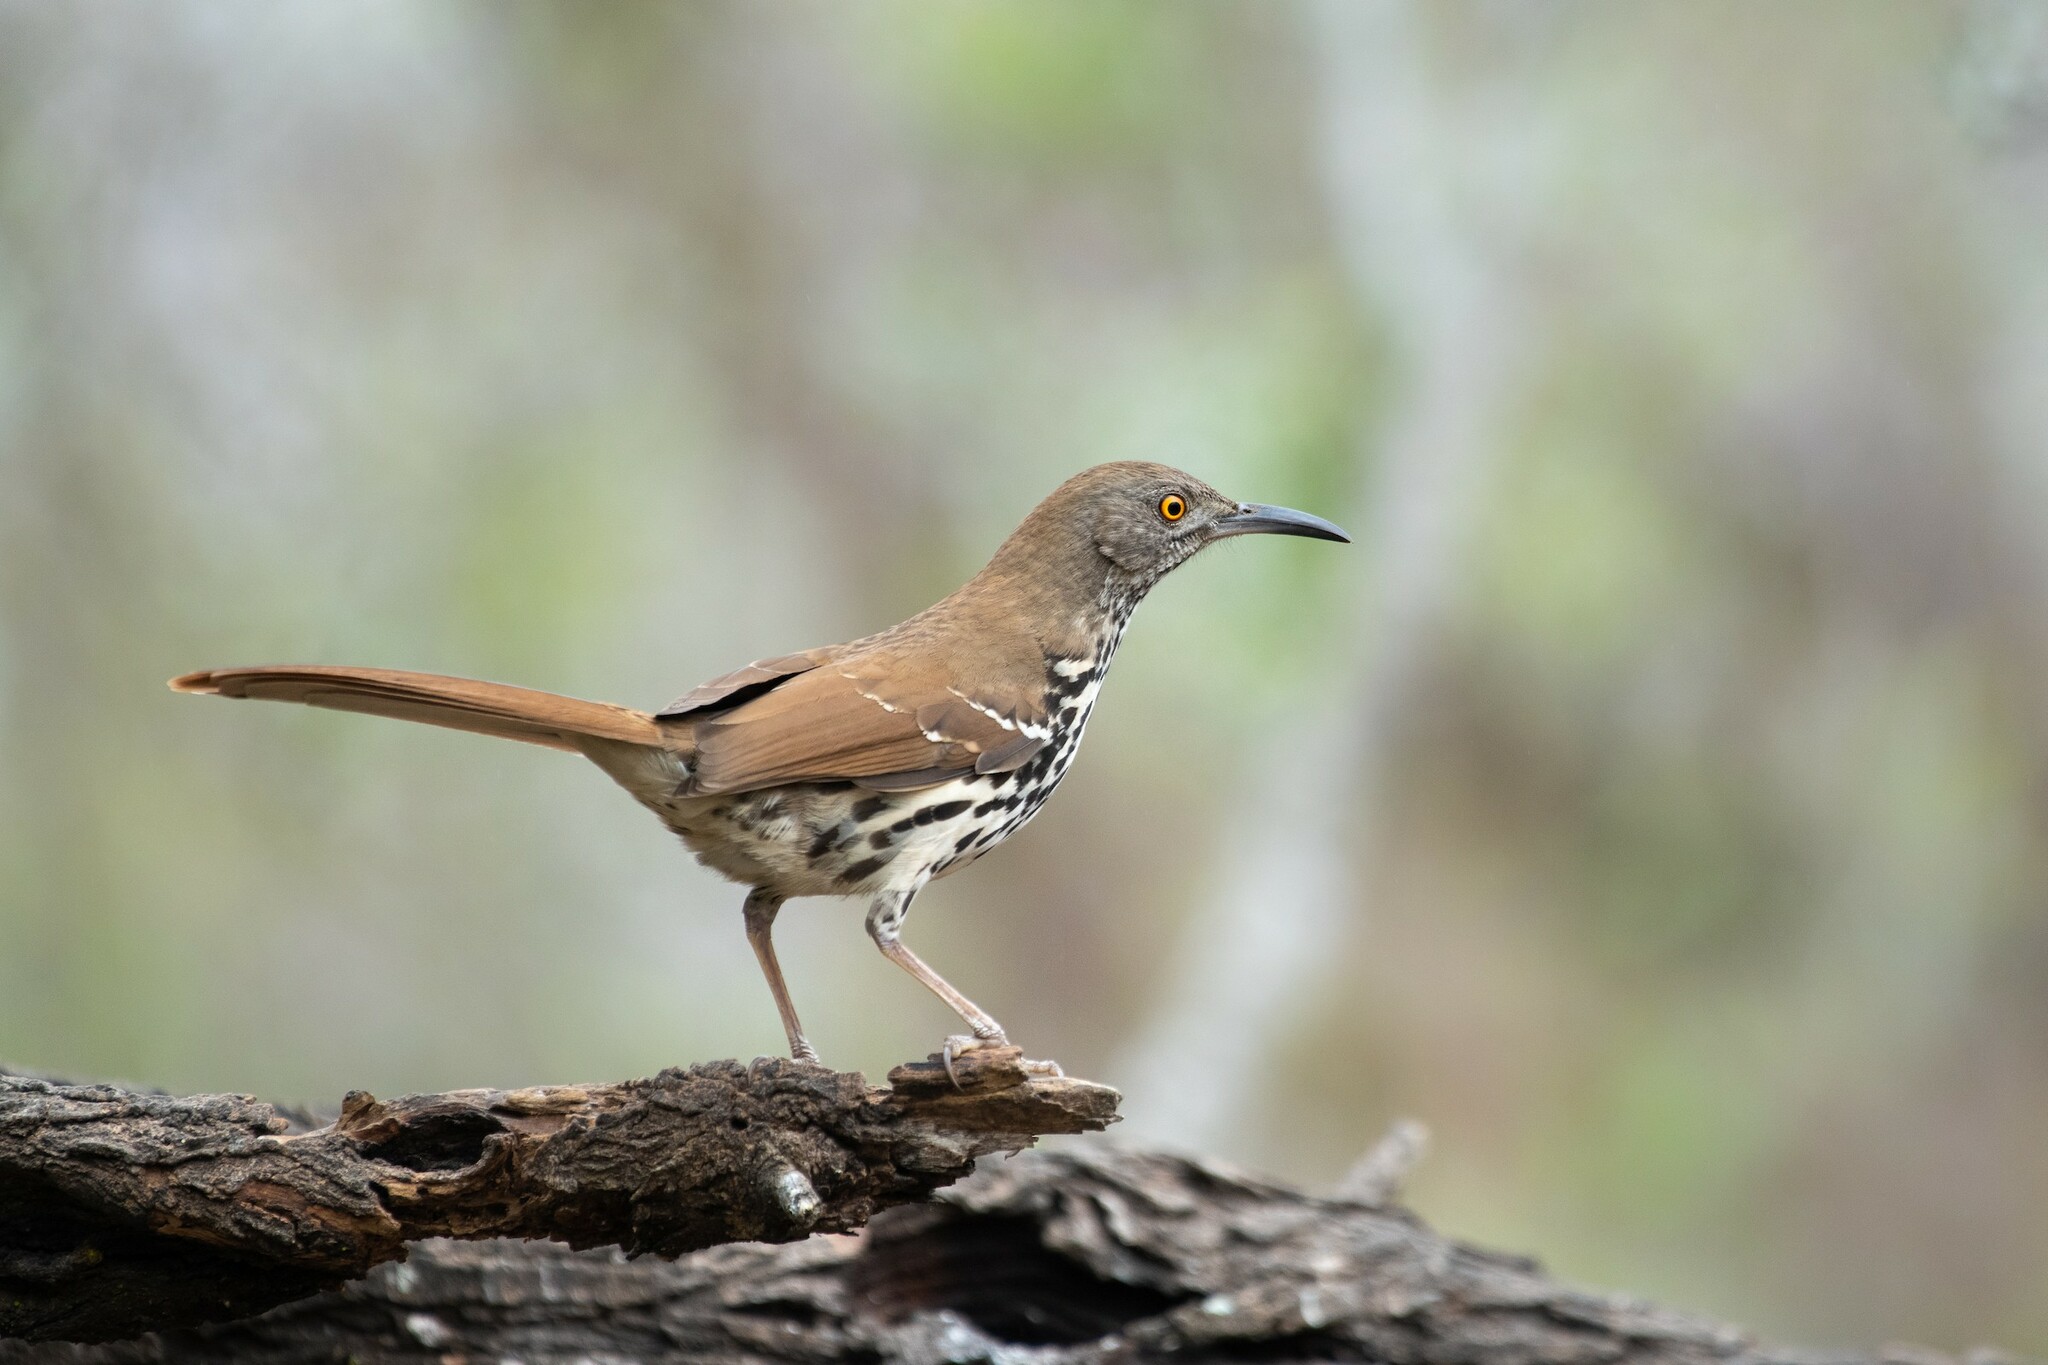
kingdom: Animalia
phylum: Chordata
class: Aves
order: Passeriformes
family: Mimidae
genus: Toxostoma
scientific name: Toxostoma longirostre
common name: Long-billed thrasher
